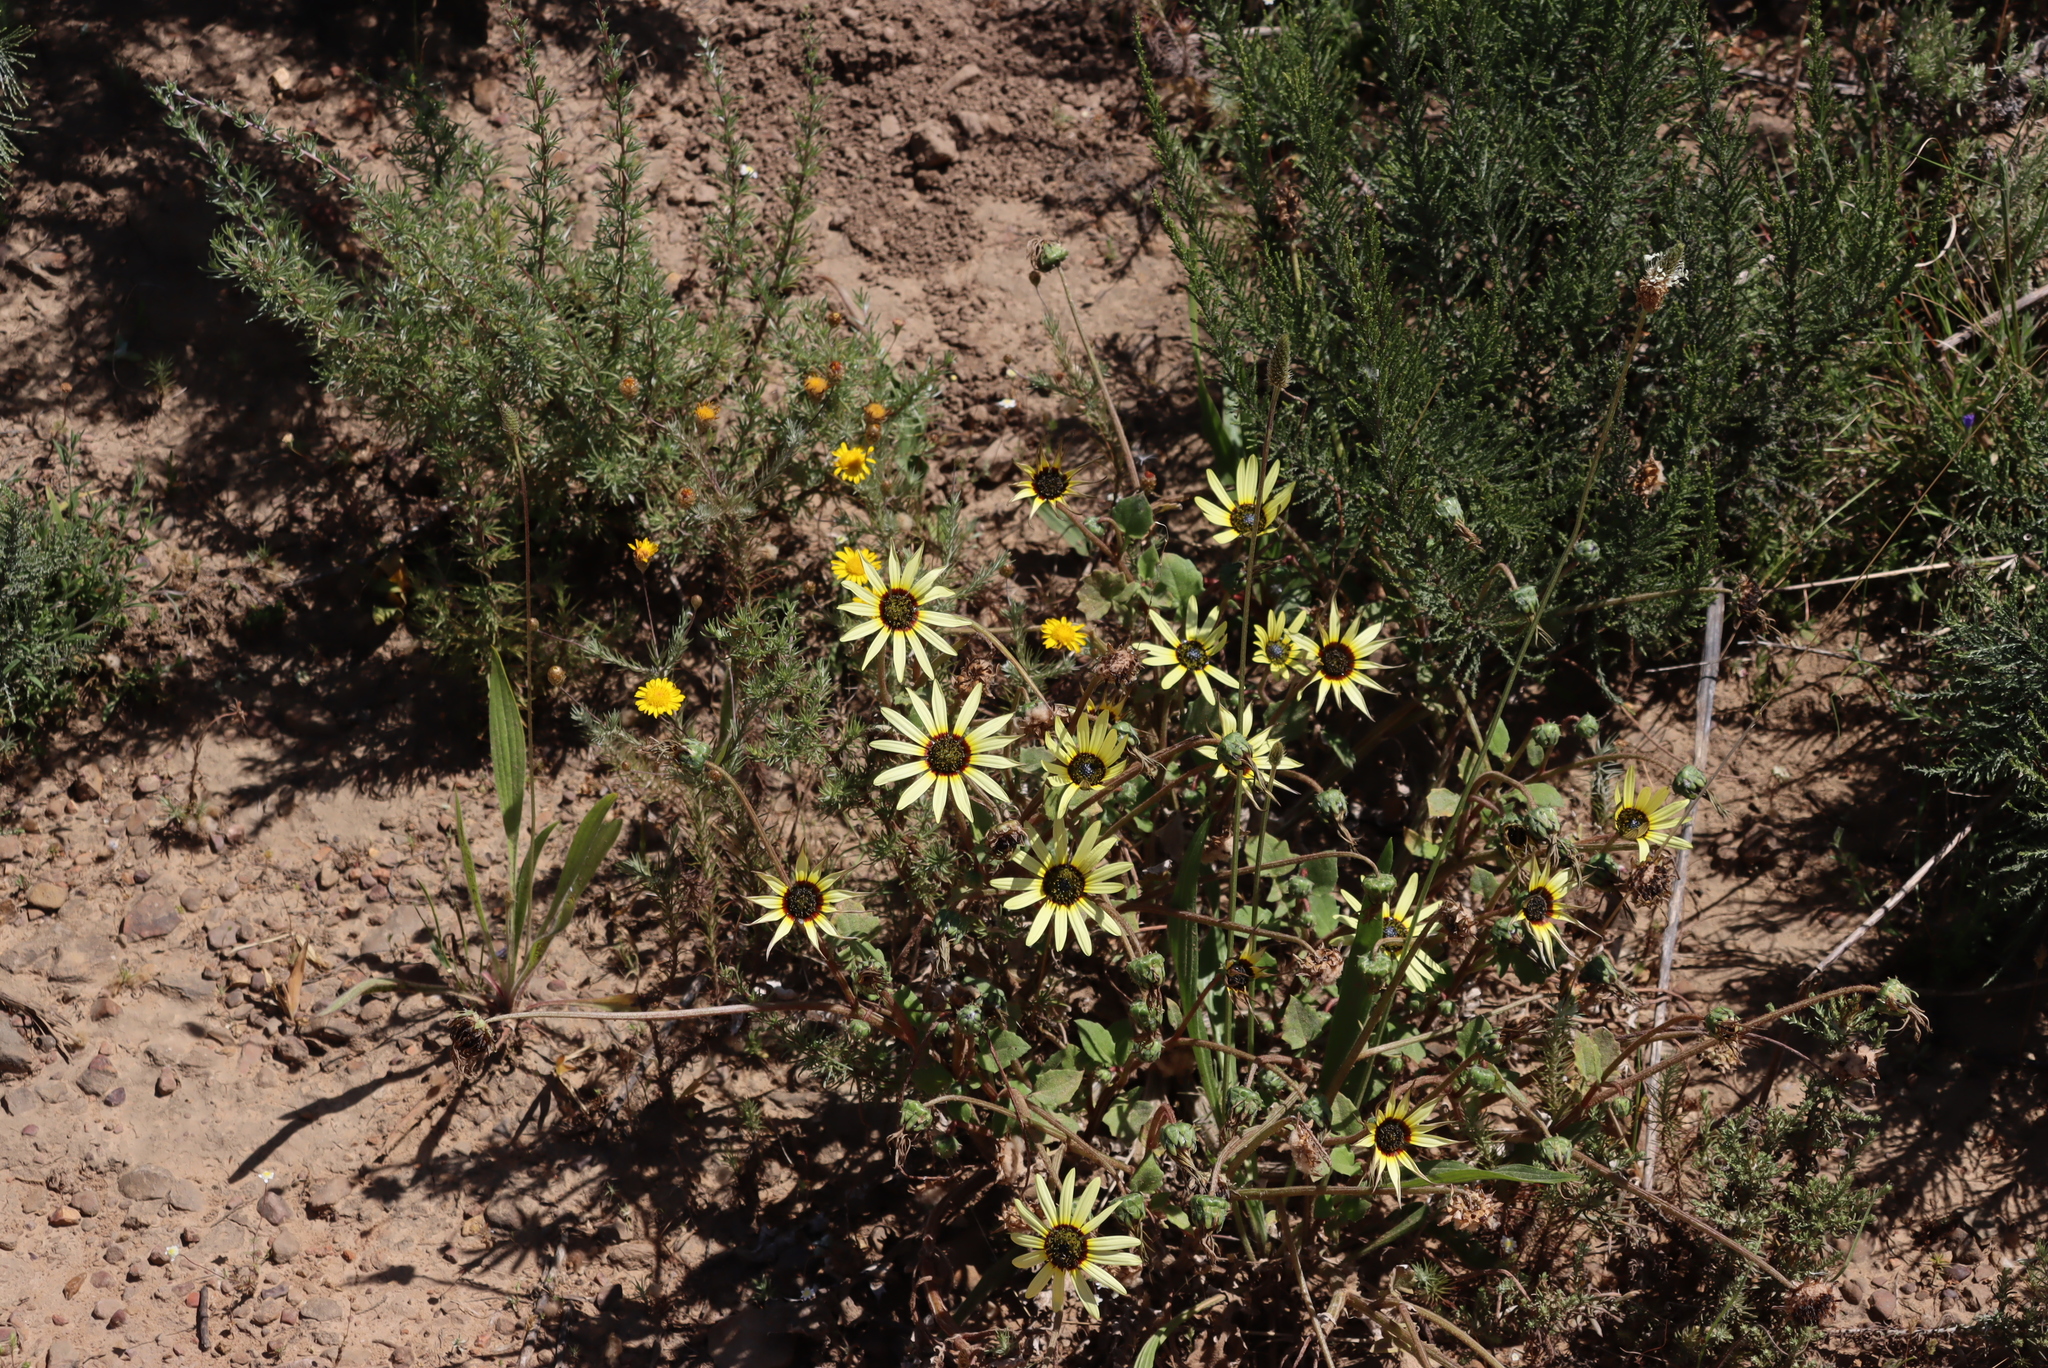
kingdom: Plantae
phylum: Tracheophyta
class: Magnoliopsida
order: Asterales
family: Asteraceae
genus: Arctotheca
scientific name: Arctotheca calendula
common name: Capeweed
